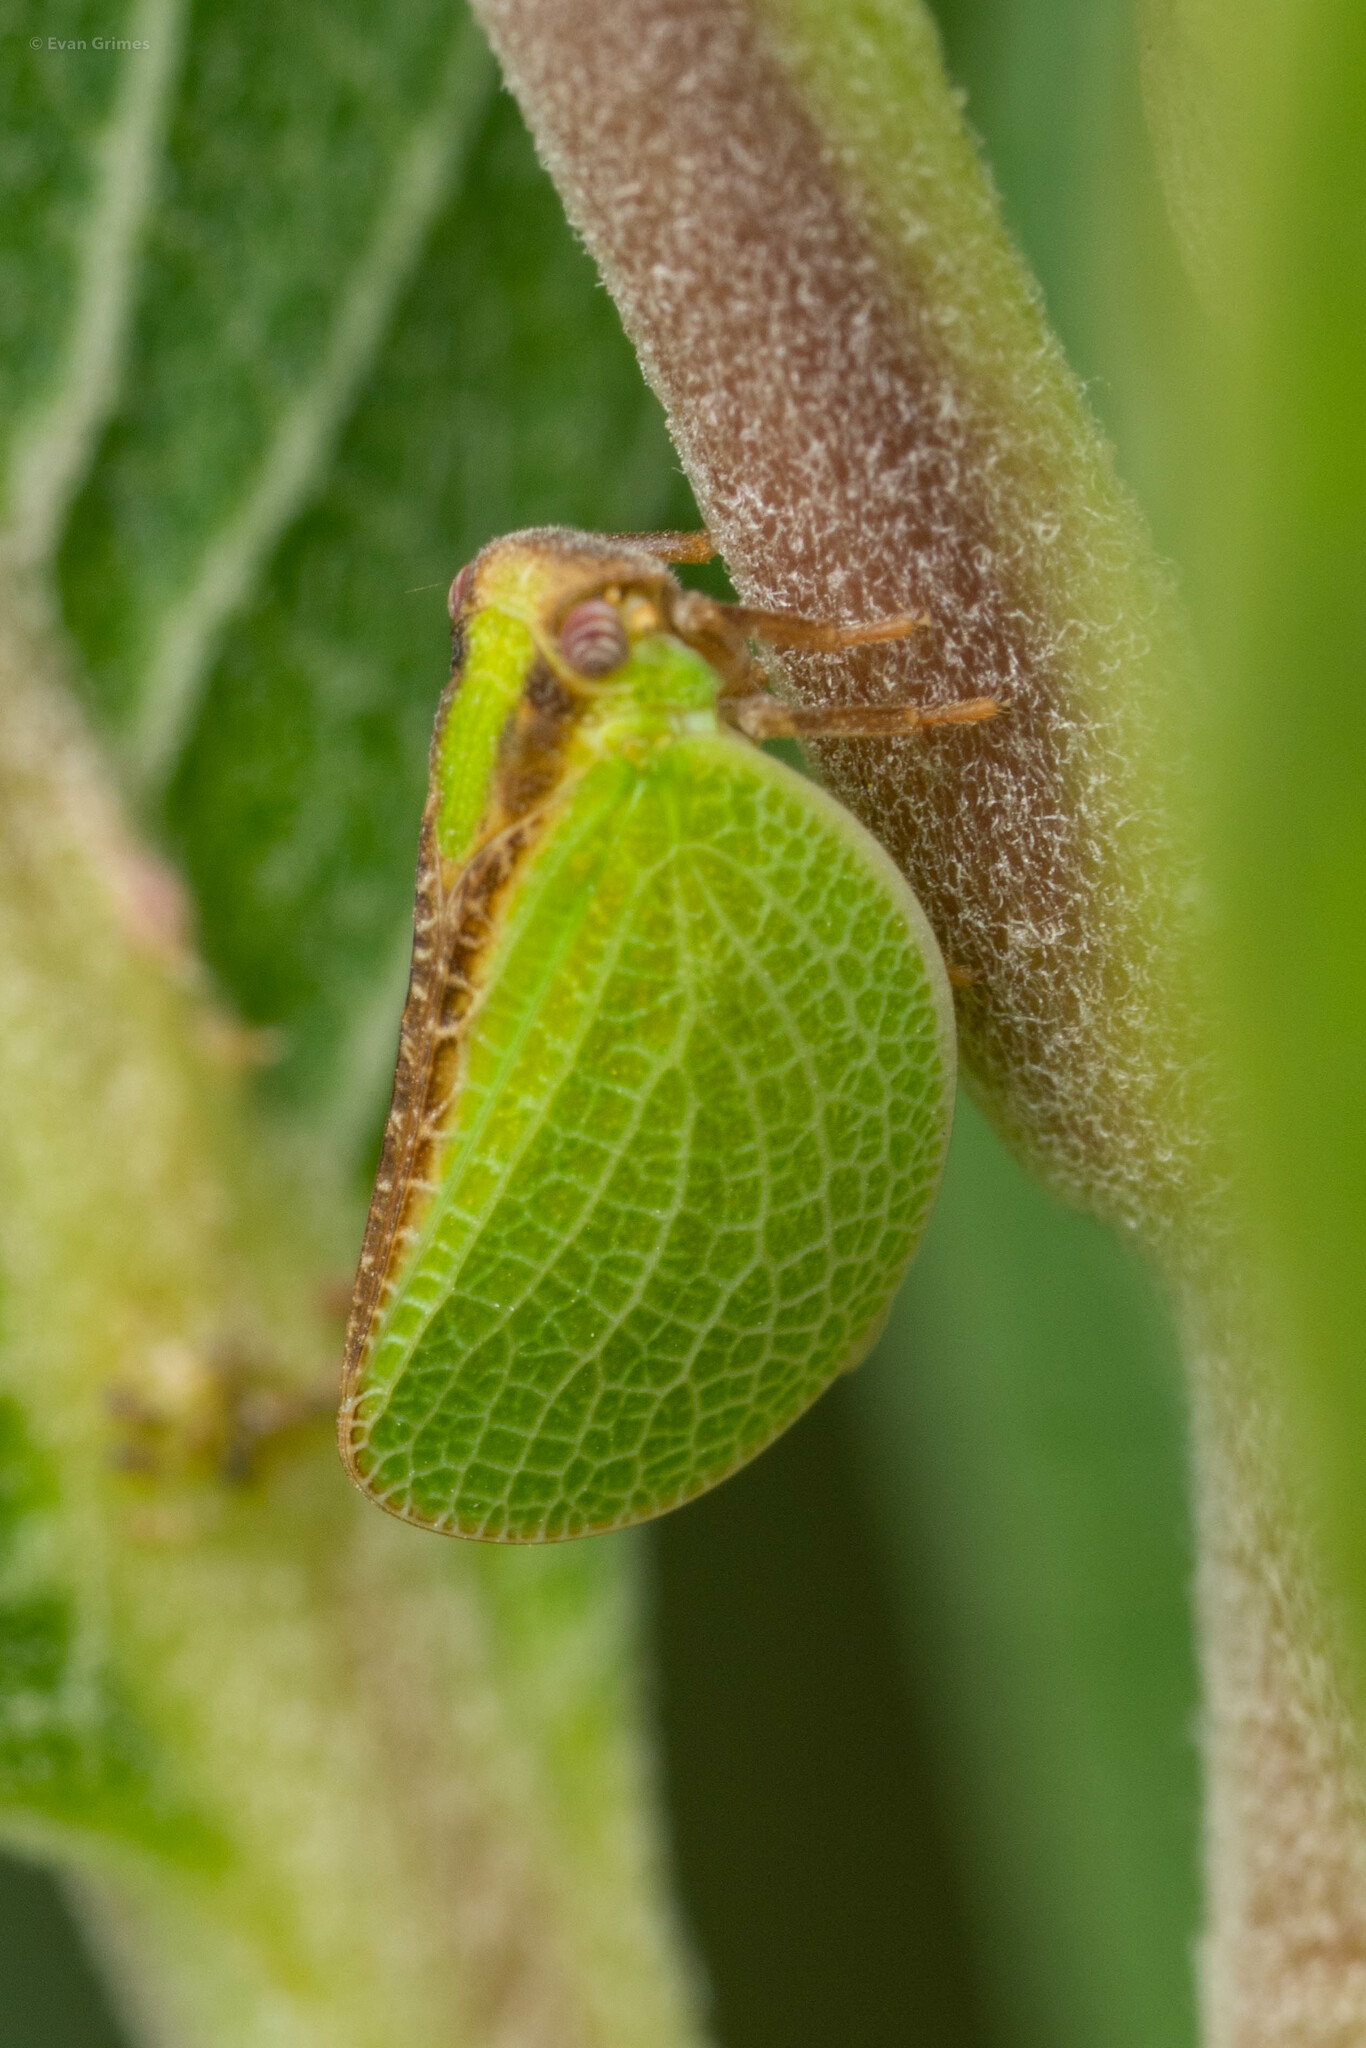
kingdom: Animalia
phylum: Arthropoda
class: Insecta
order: Hemiptera
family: Acanaloniidae
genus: Acanalonia
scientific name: Acanalonia bivittata
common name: Two-striped planthopper
